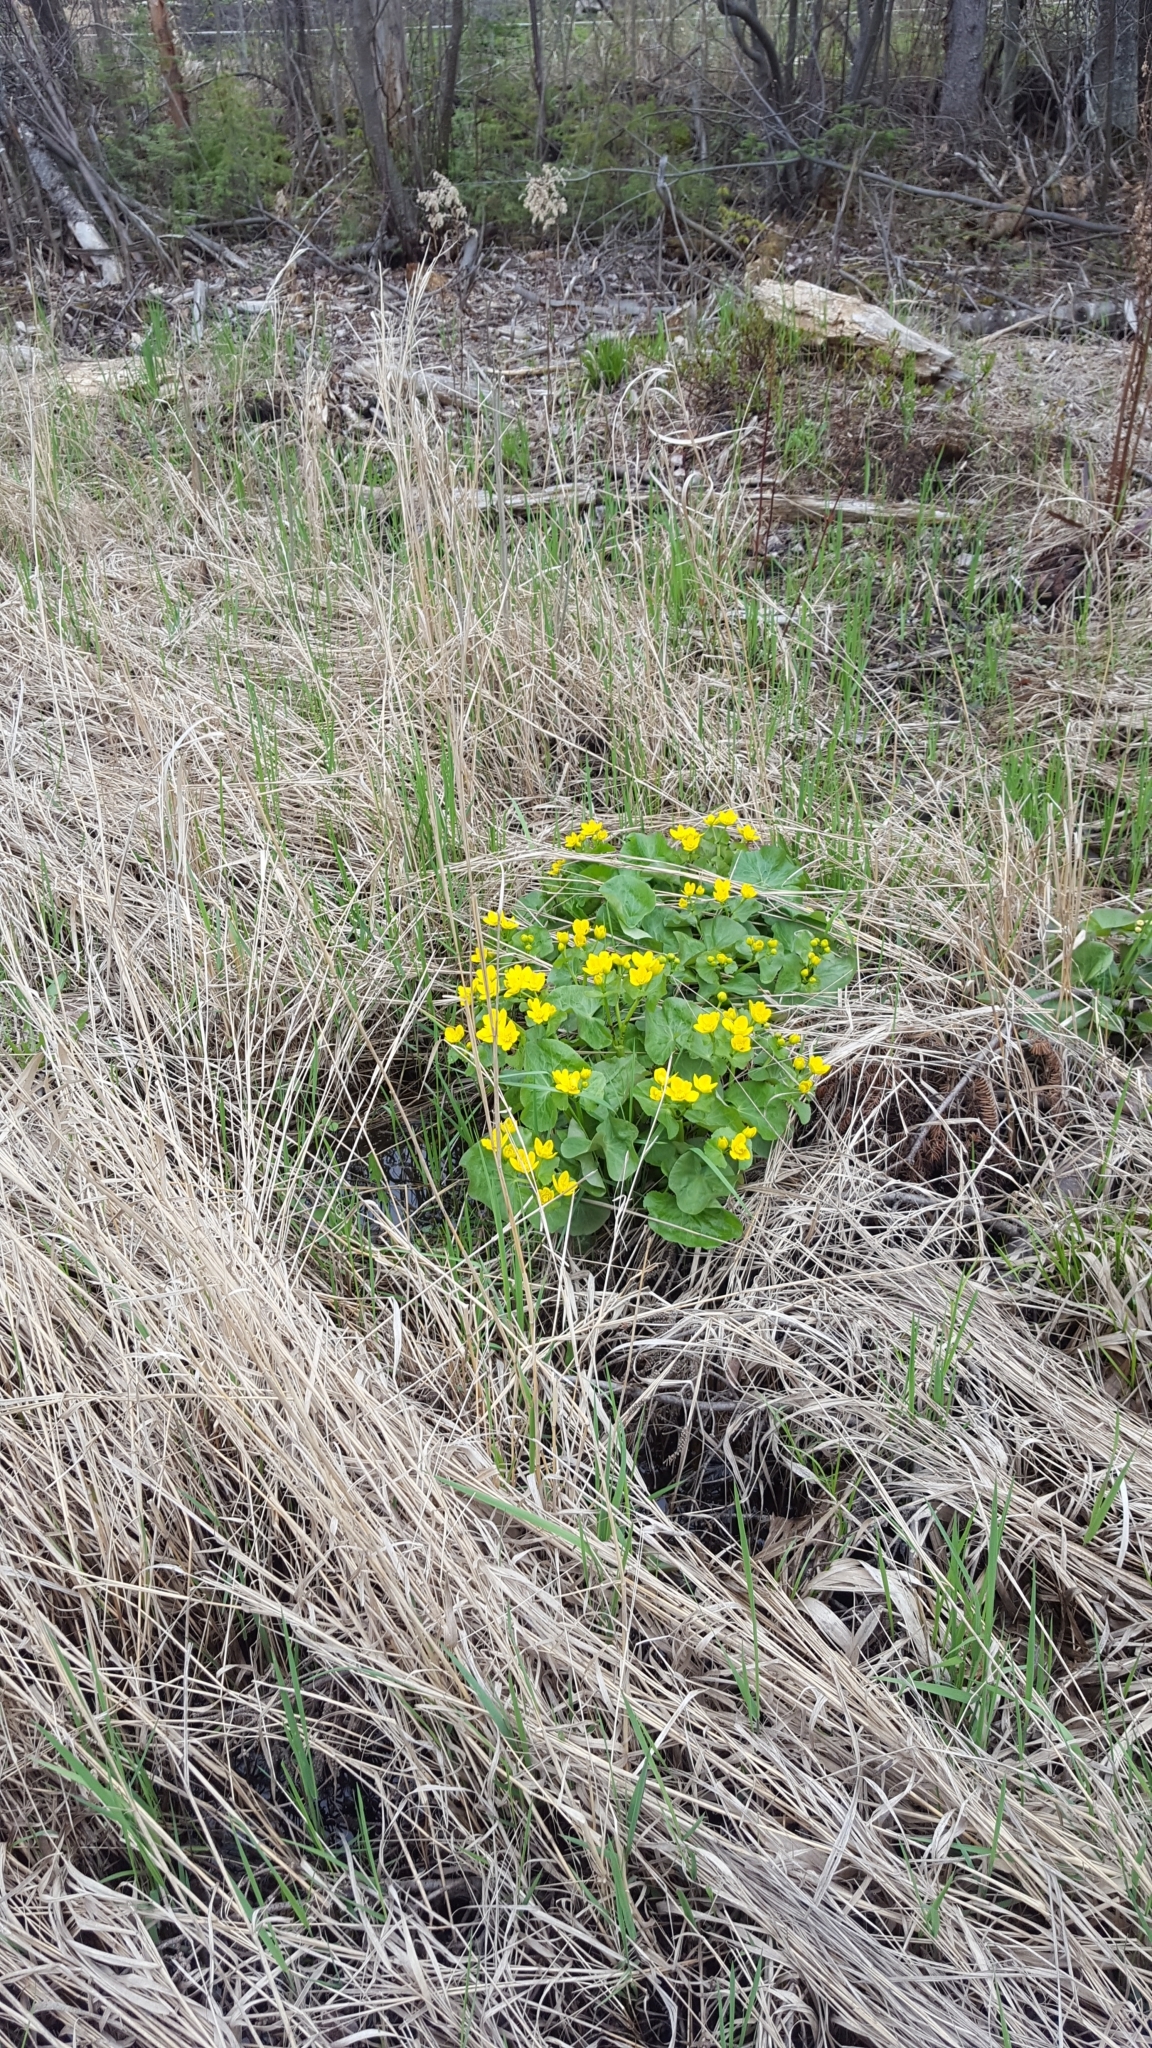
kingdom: Plantae
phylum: Tracheophyta
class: Magnoliopsida
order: Ranunculales
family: Ranunculaceae
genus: Caltha
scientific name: Caltha palustris
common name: Marsh marigold
